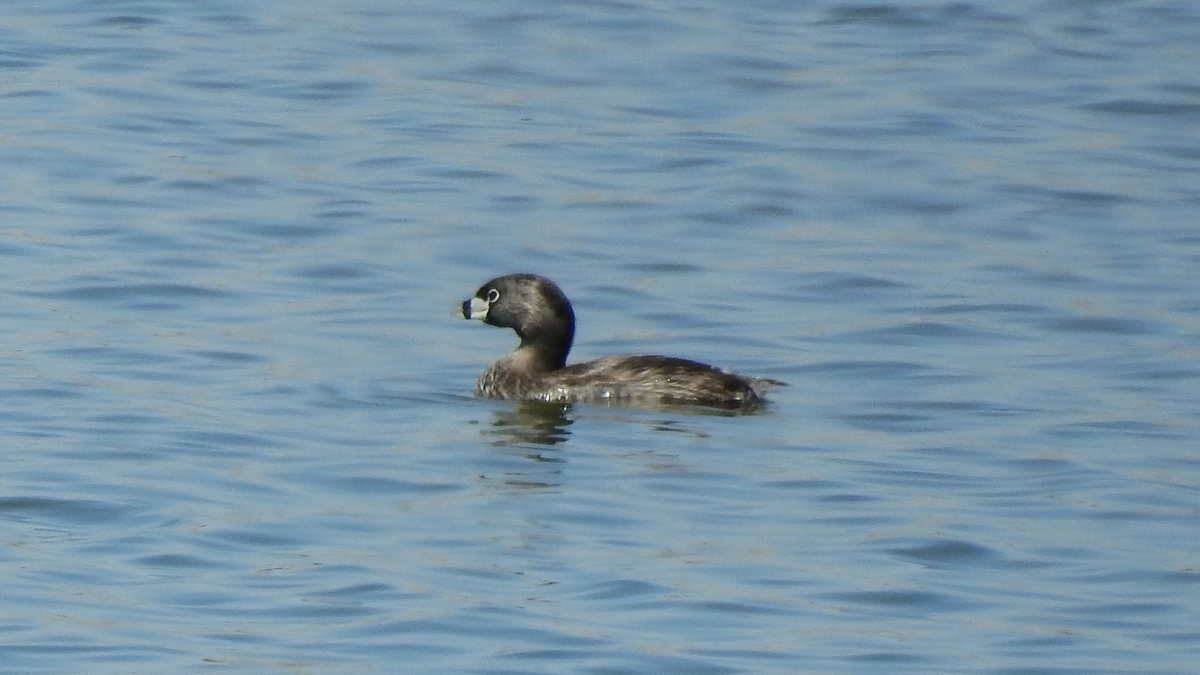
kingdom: Animalia
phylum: Chordata
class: Aves
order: Podicipediformes
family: Podicipedidae
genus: Podilymbus
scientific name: Podilymbus podiceps
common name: Pied-billed grebe
